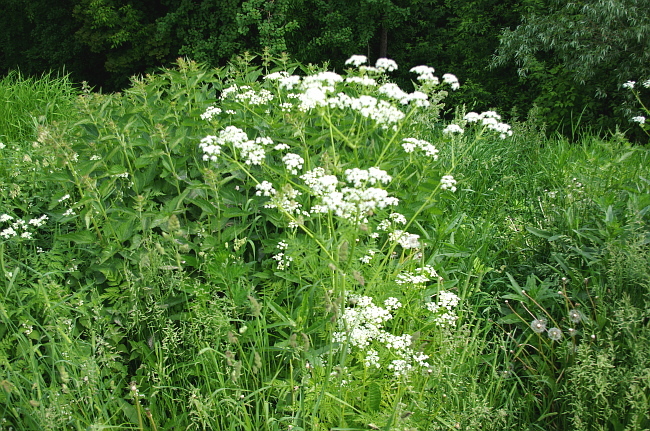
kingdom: Plantae
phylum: Tracheophyta
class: Magnoliopsida
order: Apiales
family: Apiaceae
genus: Anthriscus
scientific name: Anthriscus sylvestris
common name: Cow parsley
